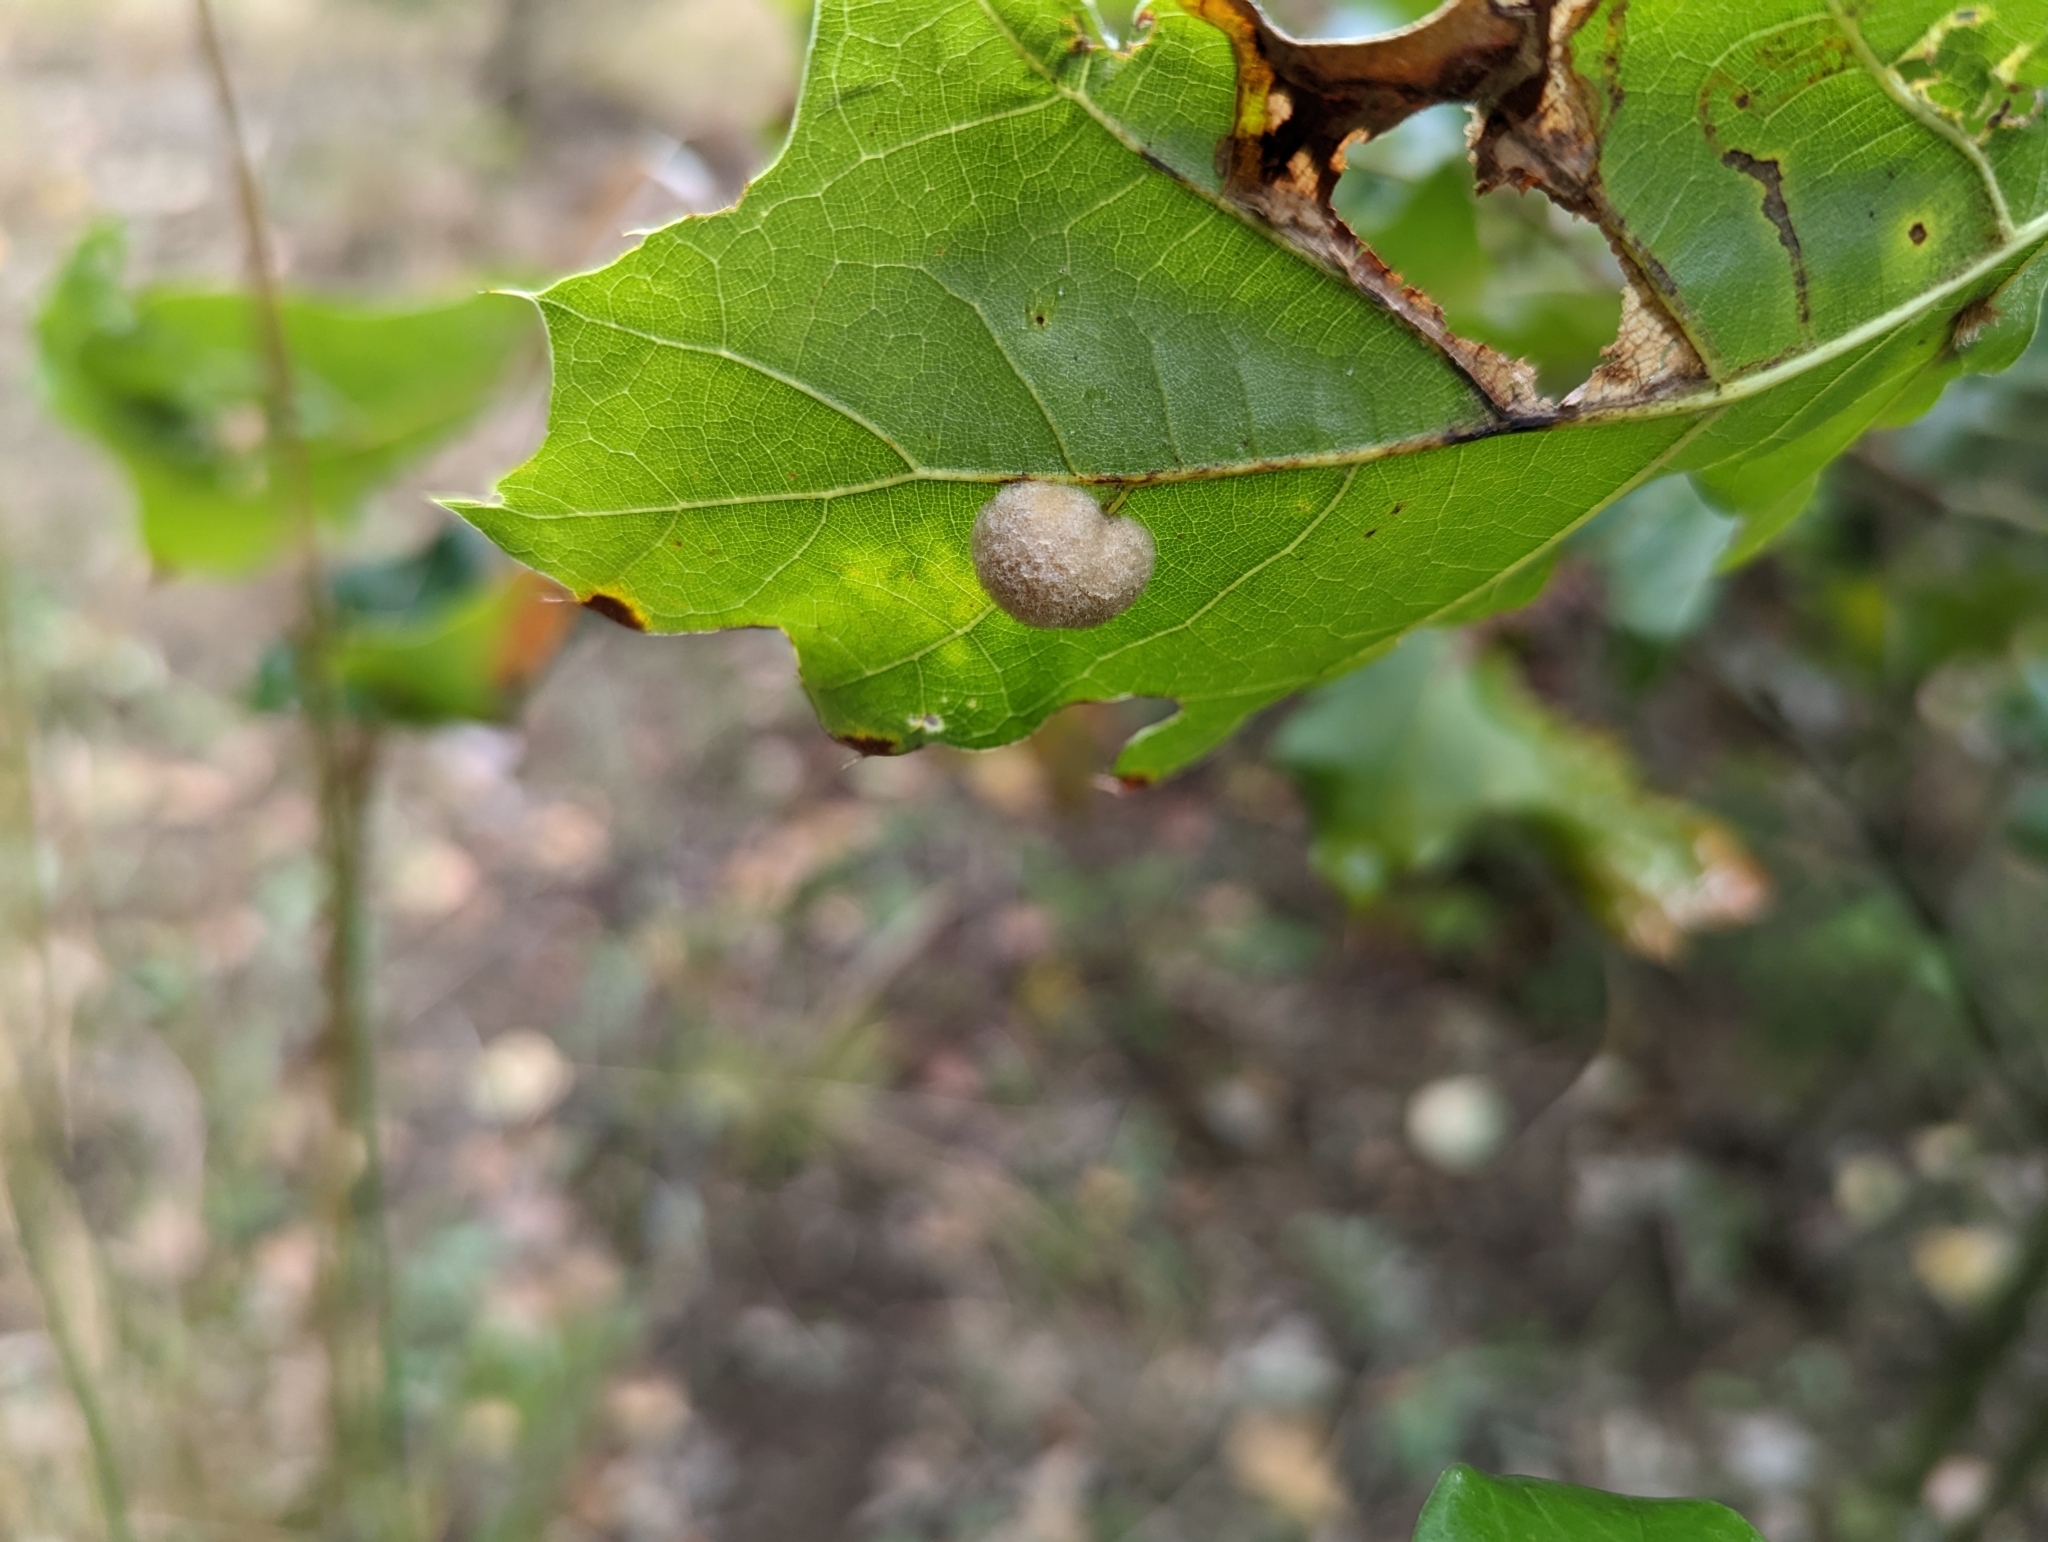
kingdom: Animalia
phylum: Arthropoda
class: Insecta
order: Hymenoptera
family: Cynipidae
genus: Callirhytis
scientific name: Callirhytis
